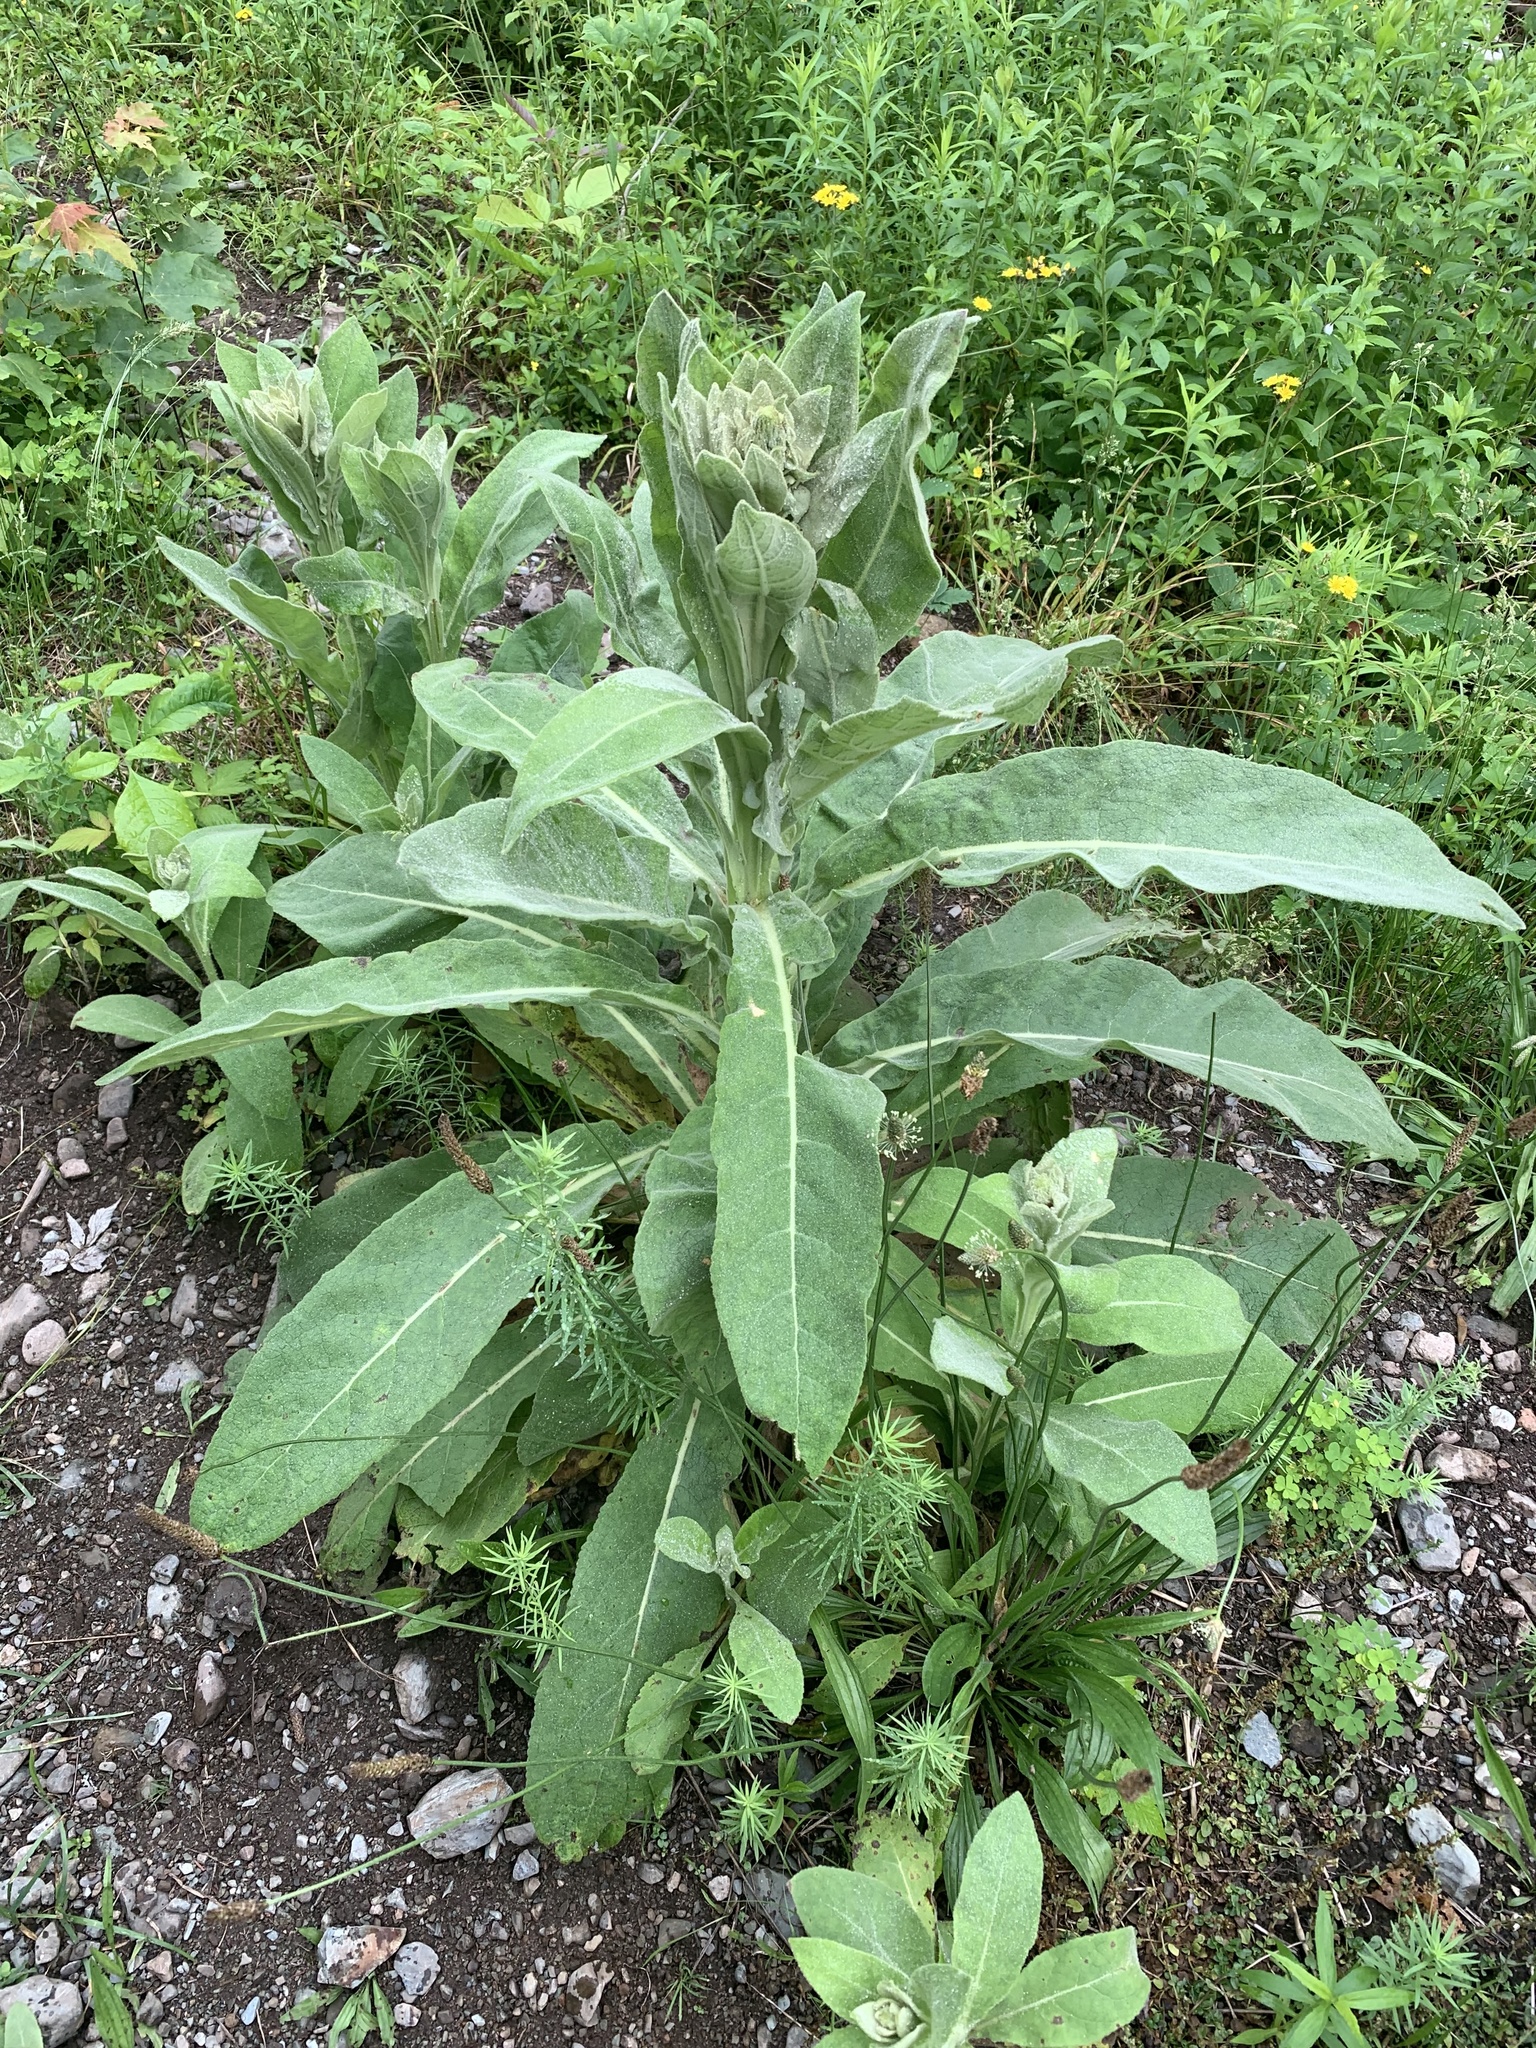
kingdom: Plantae
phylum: Tracheophyta
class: Magnoliopsida
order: Lamiales
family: Scrophulariaceae
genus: Verbascum
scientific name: Verbascum thapsus
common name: Common mullein
